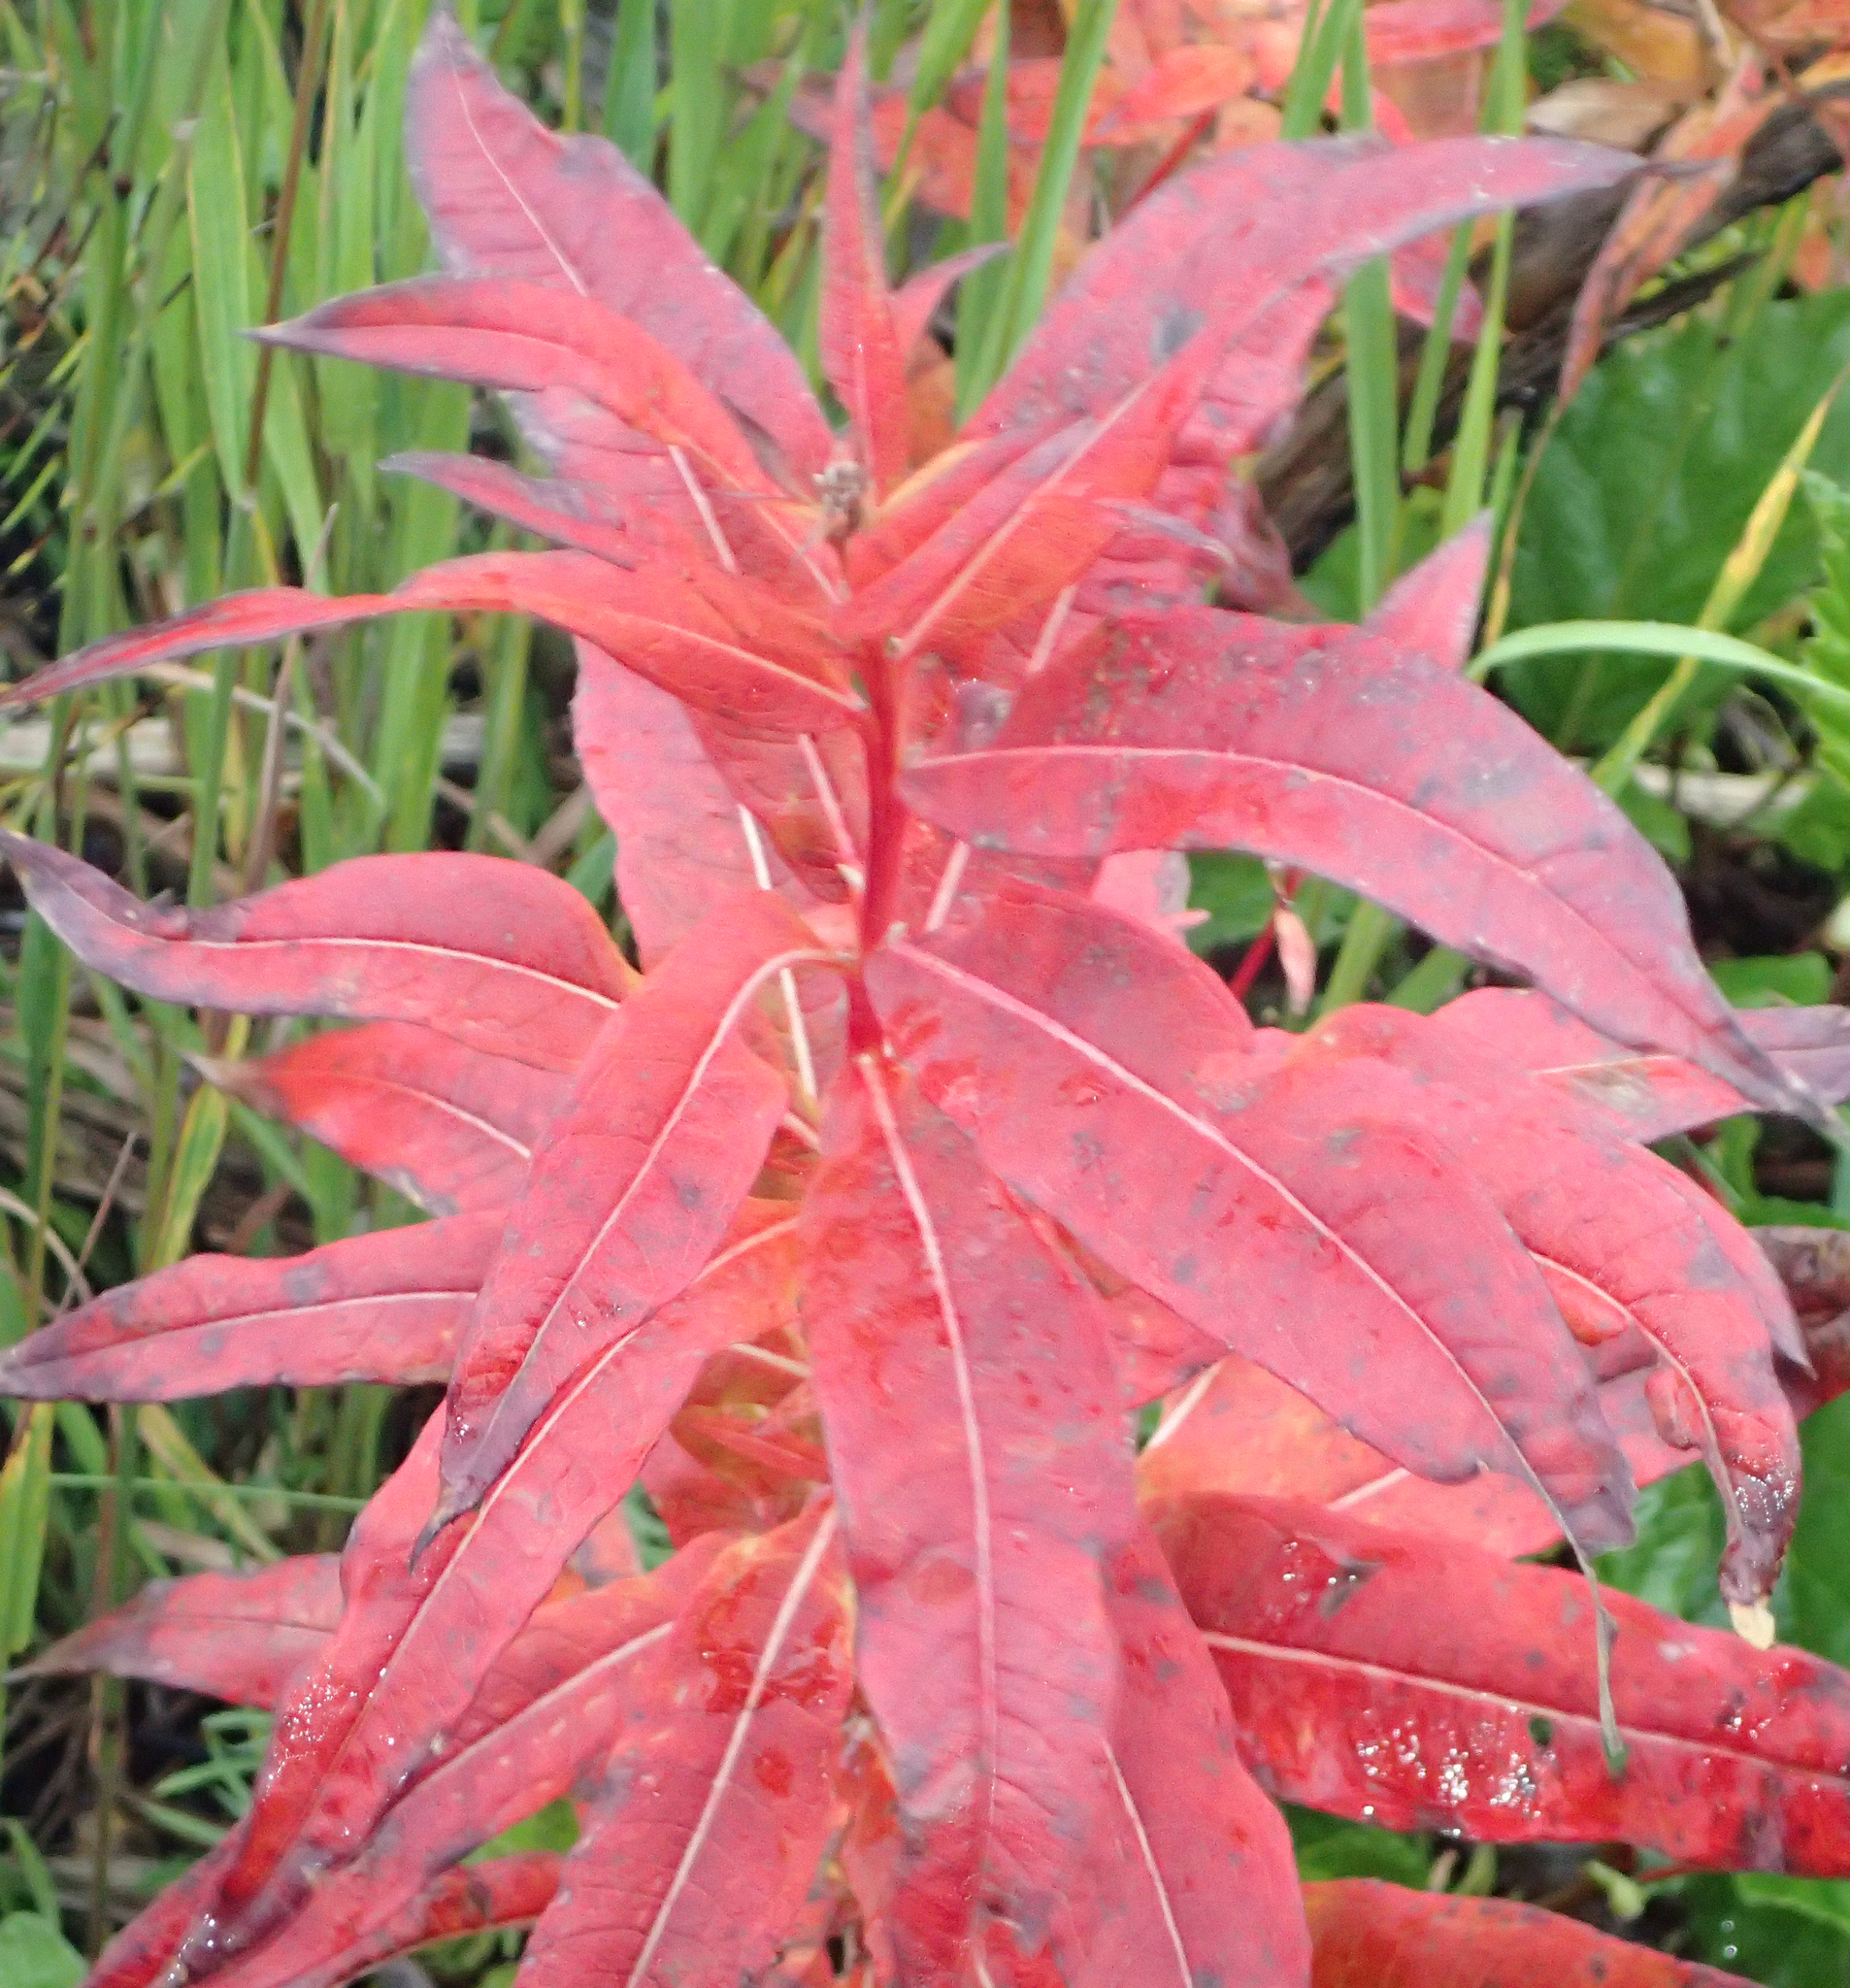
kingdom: Plantae
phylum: Tracheophyta
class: Magnoliopsida
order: Myrtales
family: Onagraceae
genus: Chamaenerion
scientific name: Chamaenerion angustifolium
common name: Fireweed
